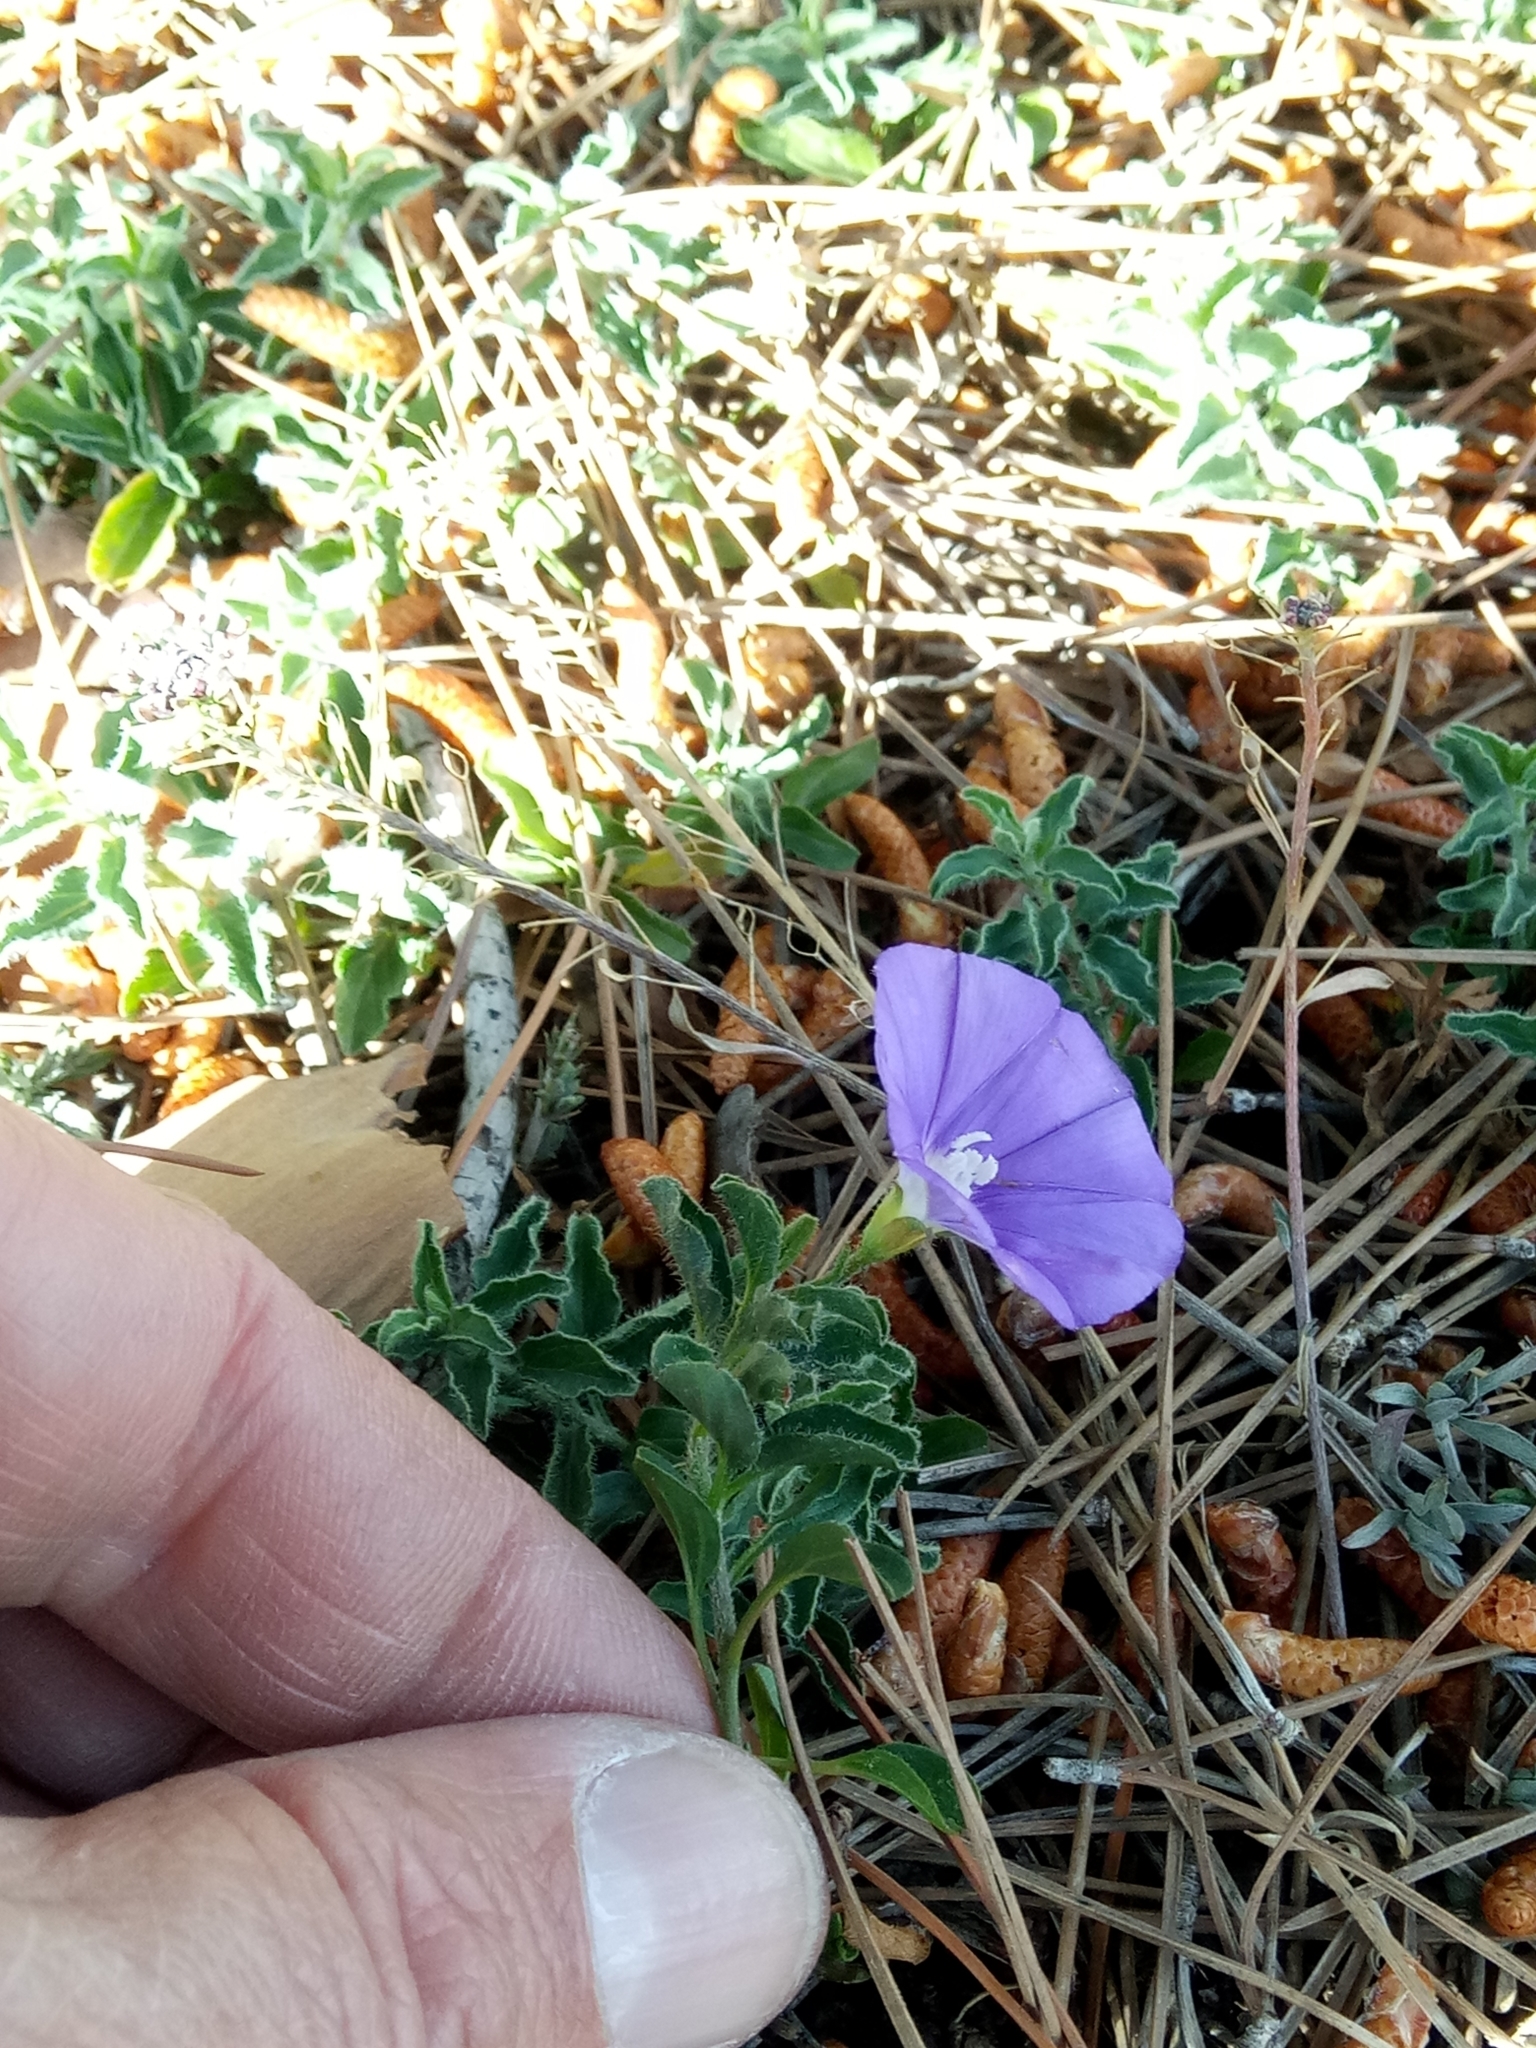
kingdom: Plantae
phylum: Tracheophyta
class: Magnoliopsida
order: Solanales
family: Convolvulaceae
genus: Convolvulus
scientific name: Convolvulus sabatius
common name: Ground blue-convolvulus
